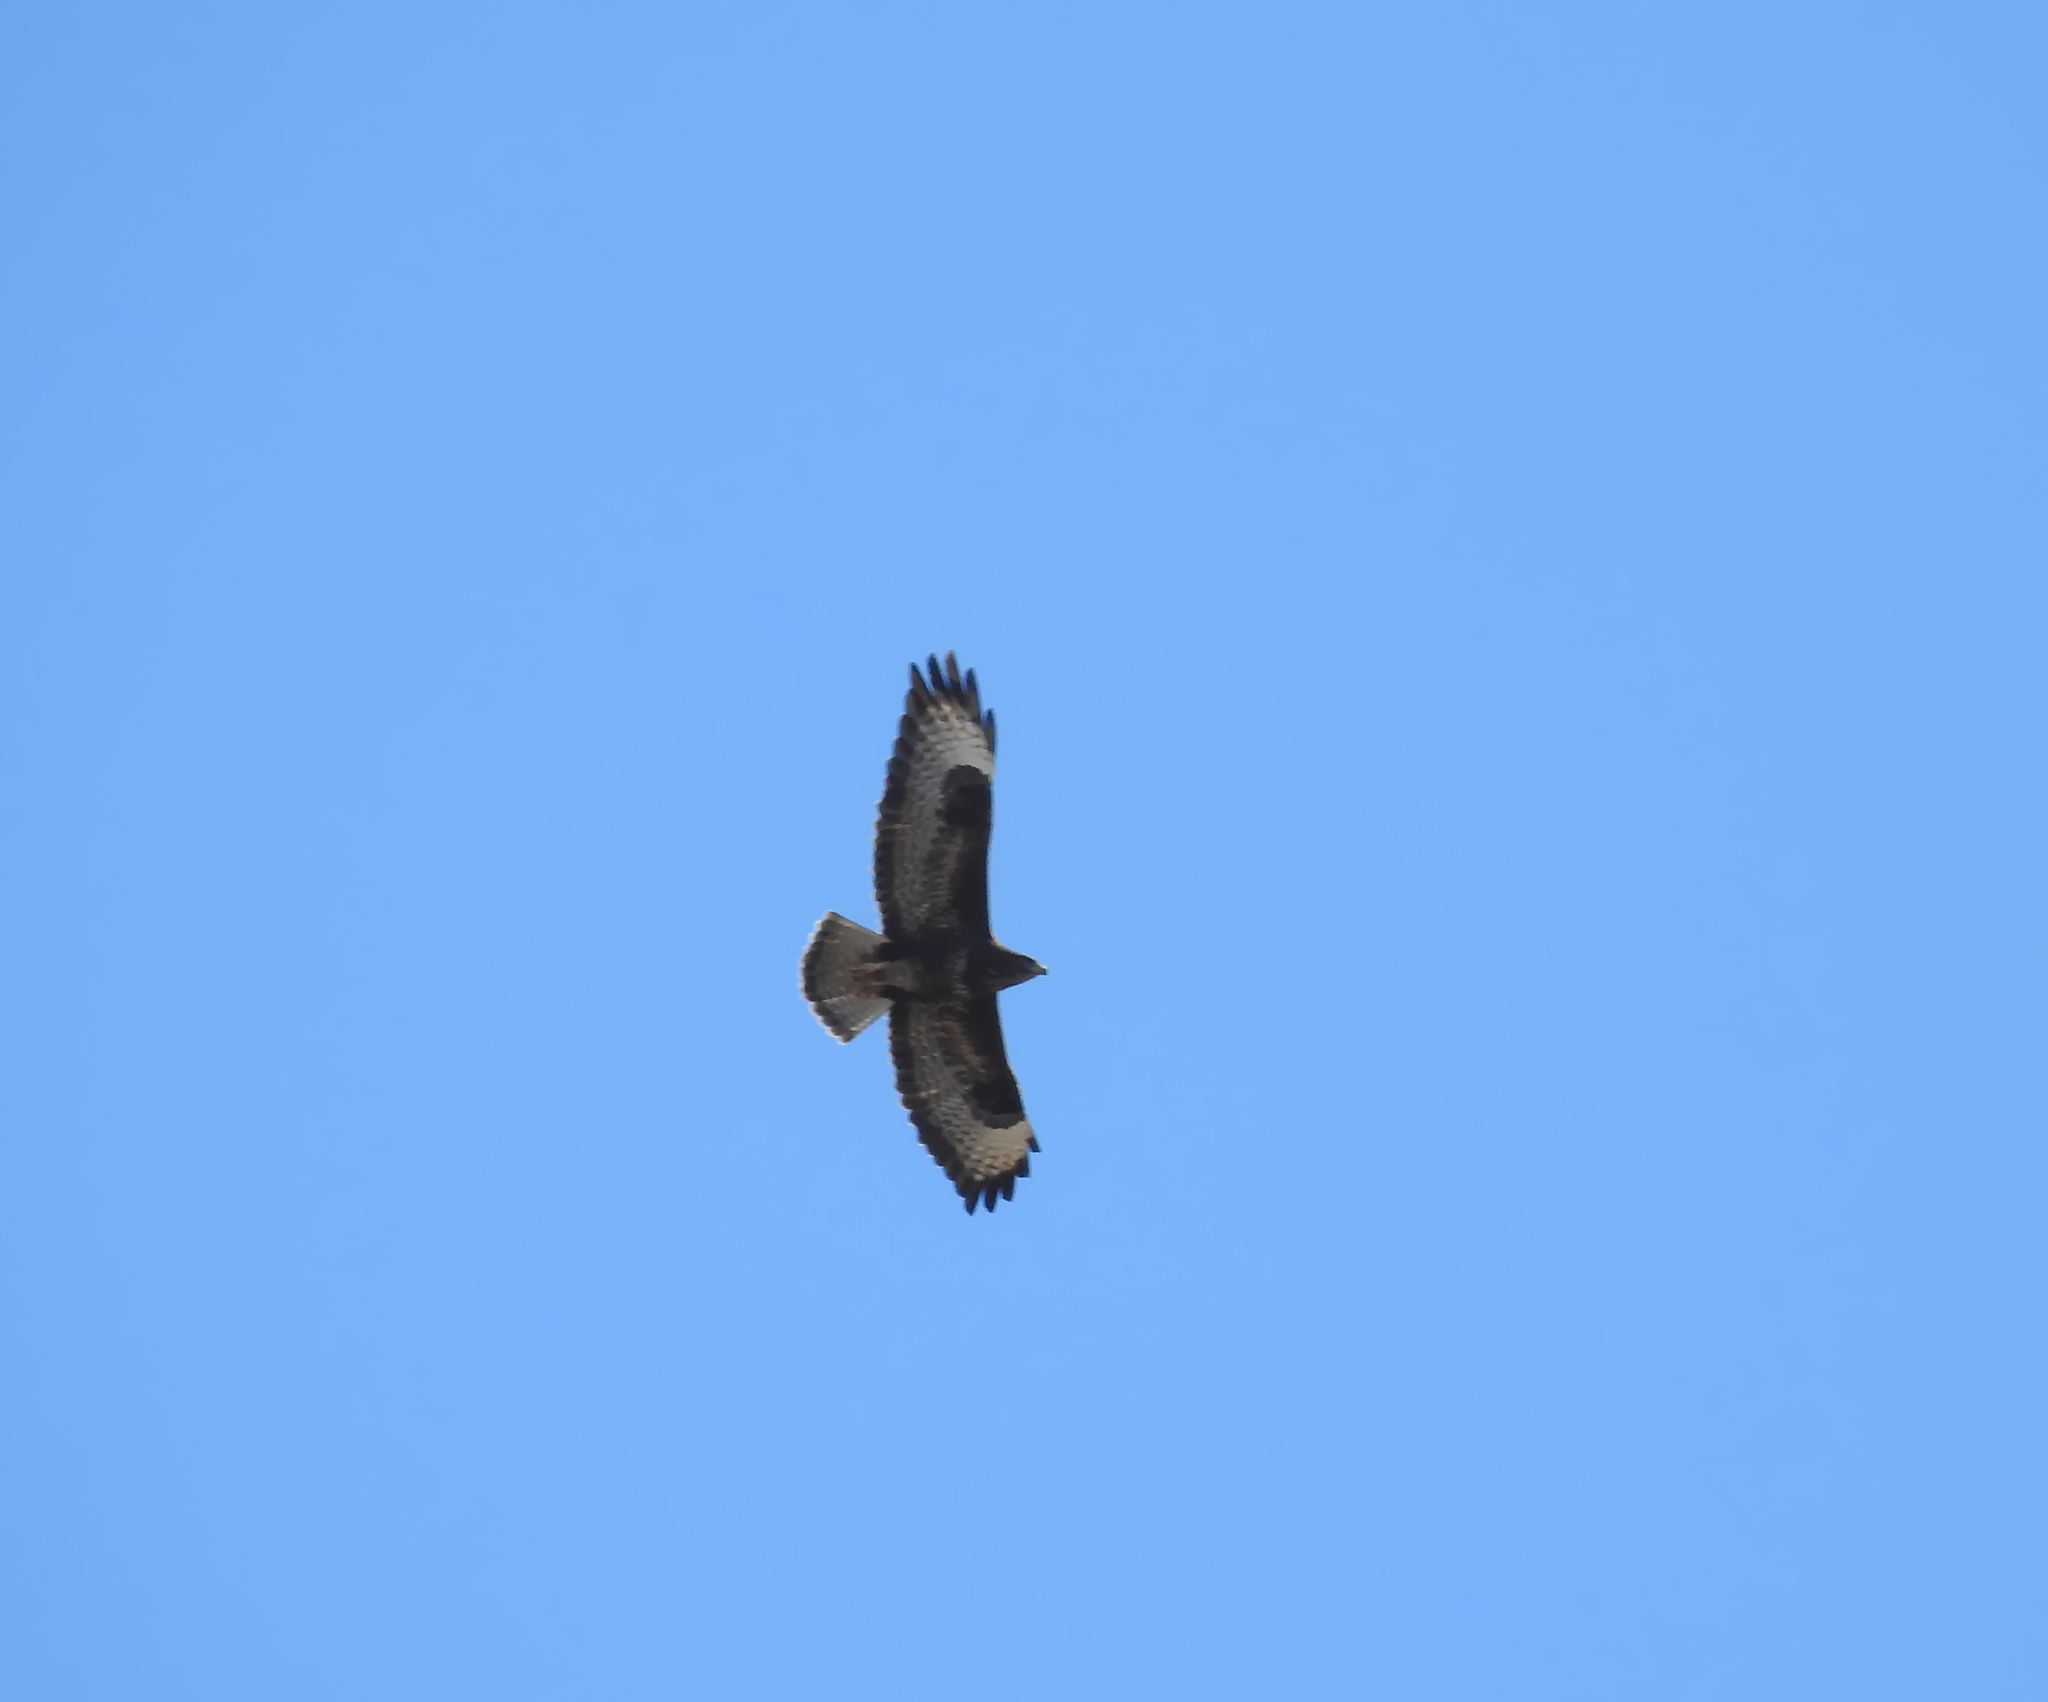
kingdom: Animalia
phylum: Chordata
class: Aves
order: Accipitriformes
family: Accipitridae
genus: Buteo
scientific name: Buteo buteo
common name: Common buzzard
